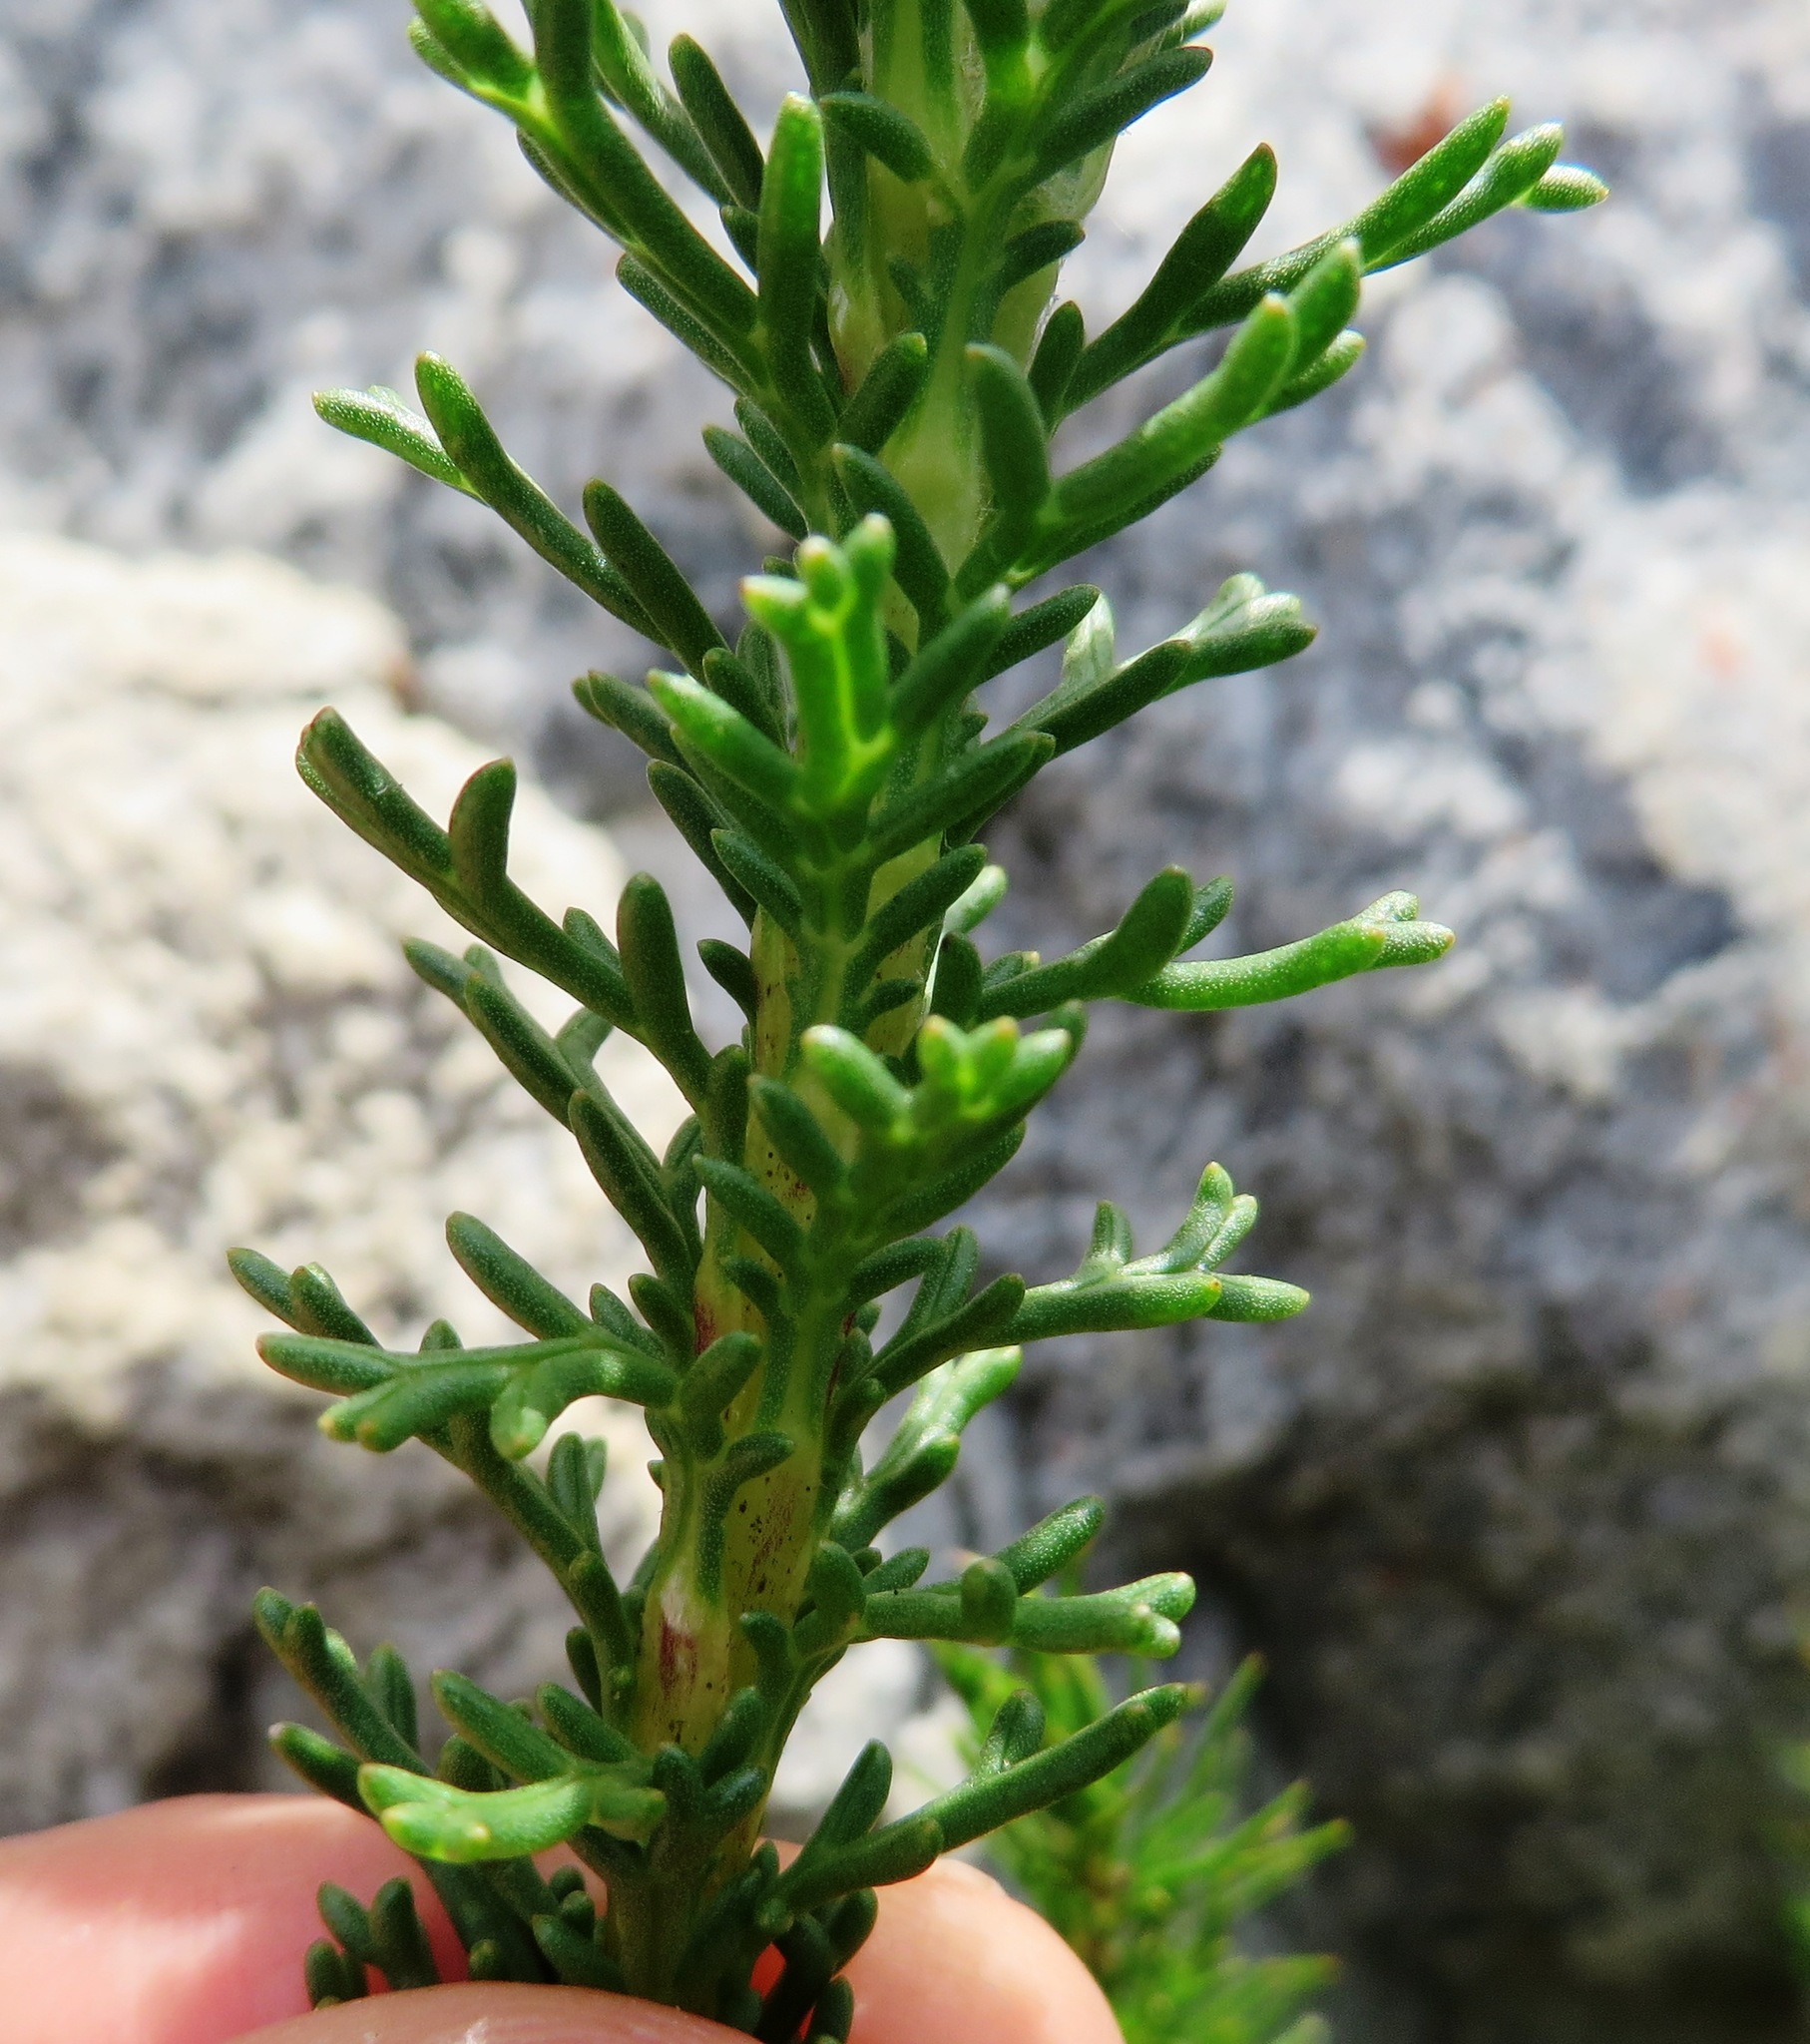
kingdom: Plantae
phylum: Tracheophyta
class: Magnoliopsida
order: Asterales
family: Asteraceae
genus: Euryops
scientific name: Euryops abrotanifolius
